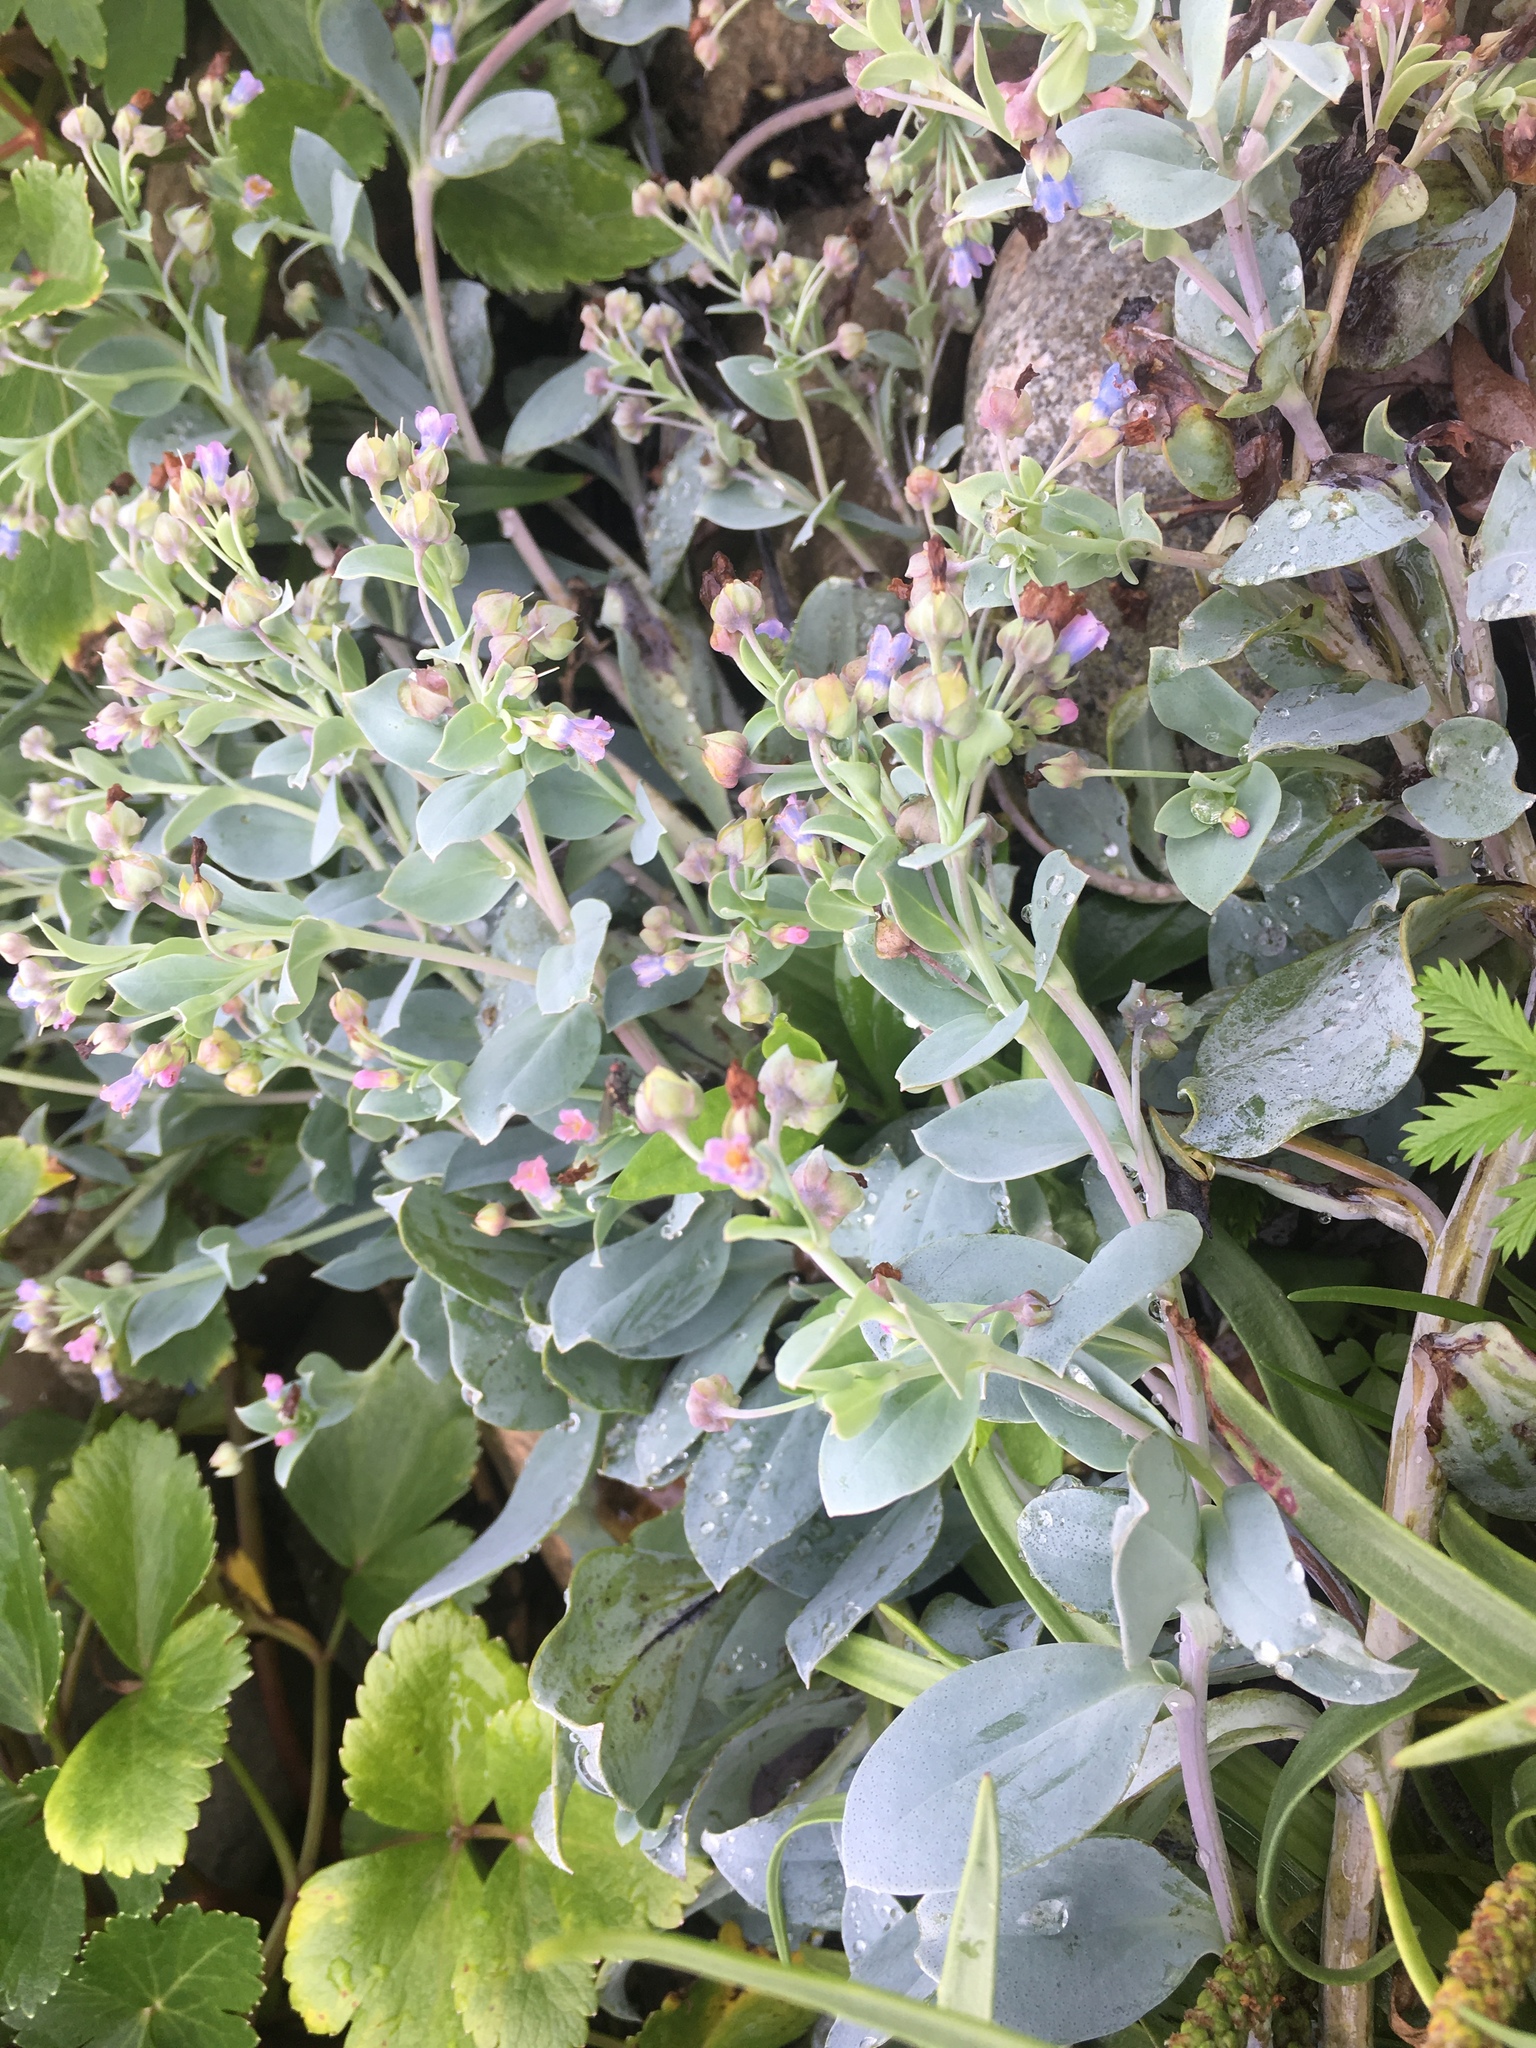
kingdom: Plantae
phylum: Tracheophyta
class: Magnoliopsida
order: Boraginales
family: Boraginaceae
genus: Mertensia
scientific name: Mertensia maritima
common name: Oysterplant
